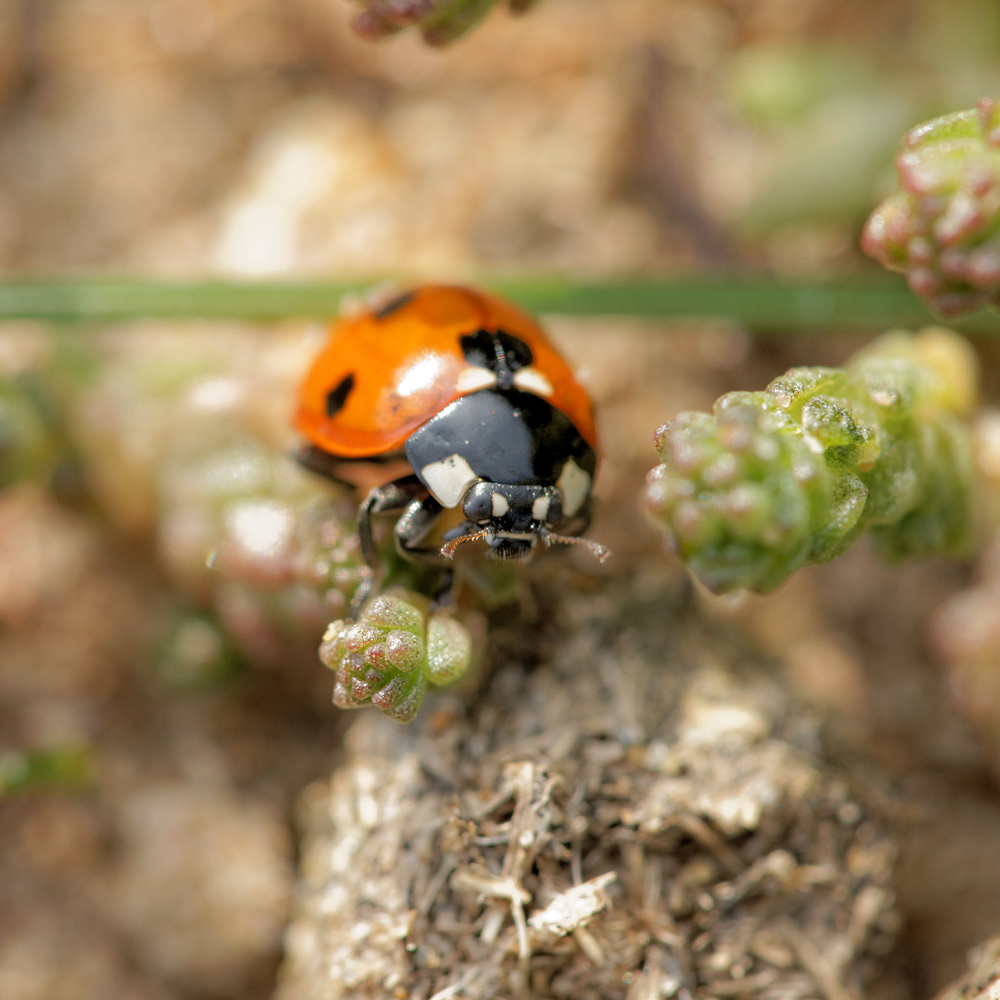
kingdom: Animalia
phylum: Arthropoda
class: Insecta
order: Coleoptera
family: Coccinellidae
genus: Coccinella
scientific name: Coccinella septempunctata
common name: Sevenspotted lady beetle
